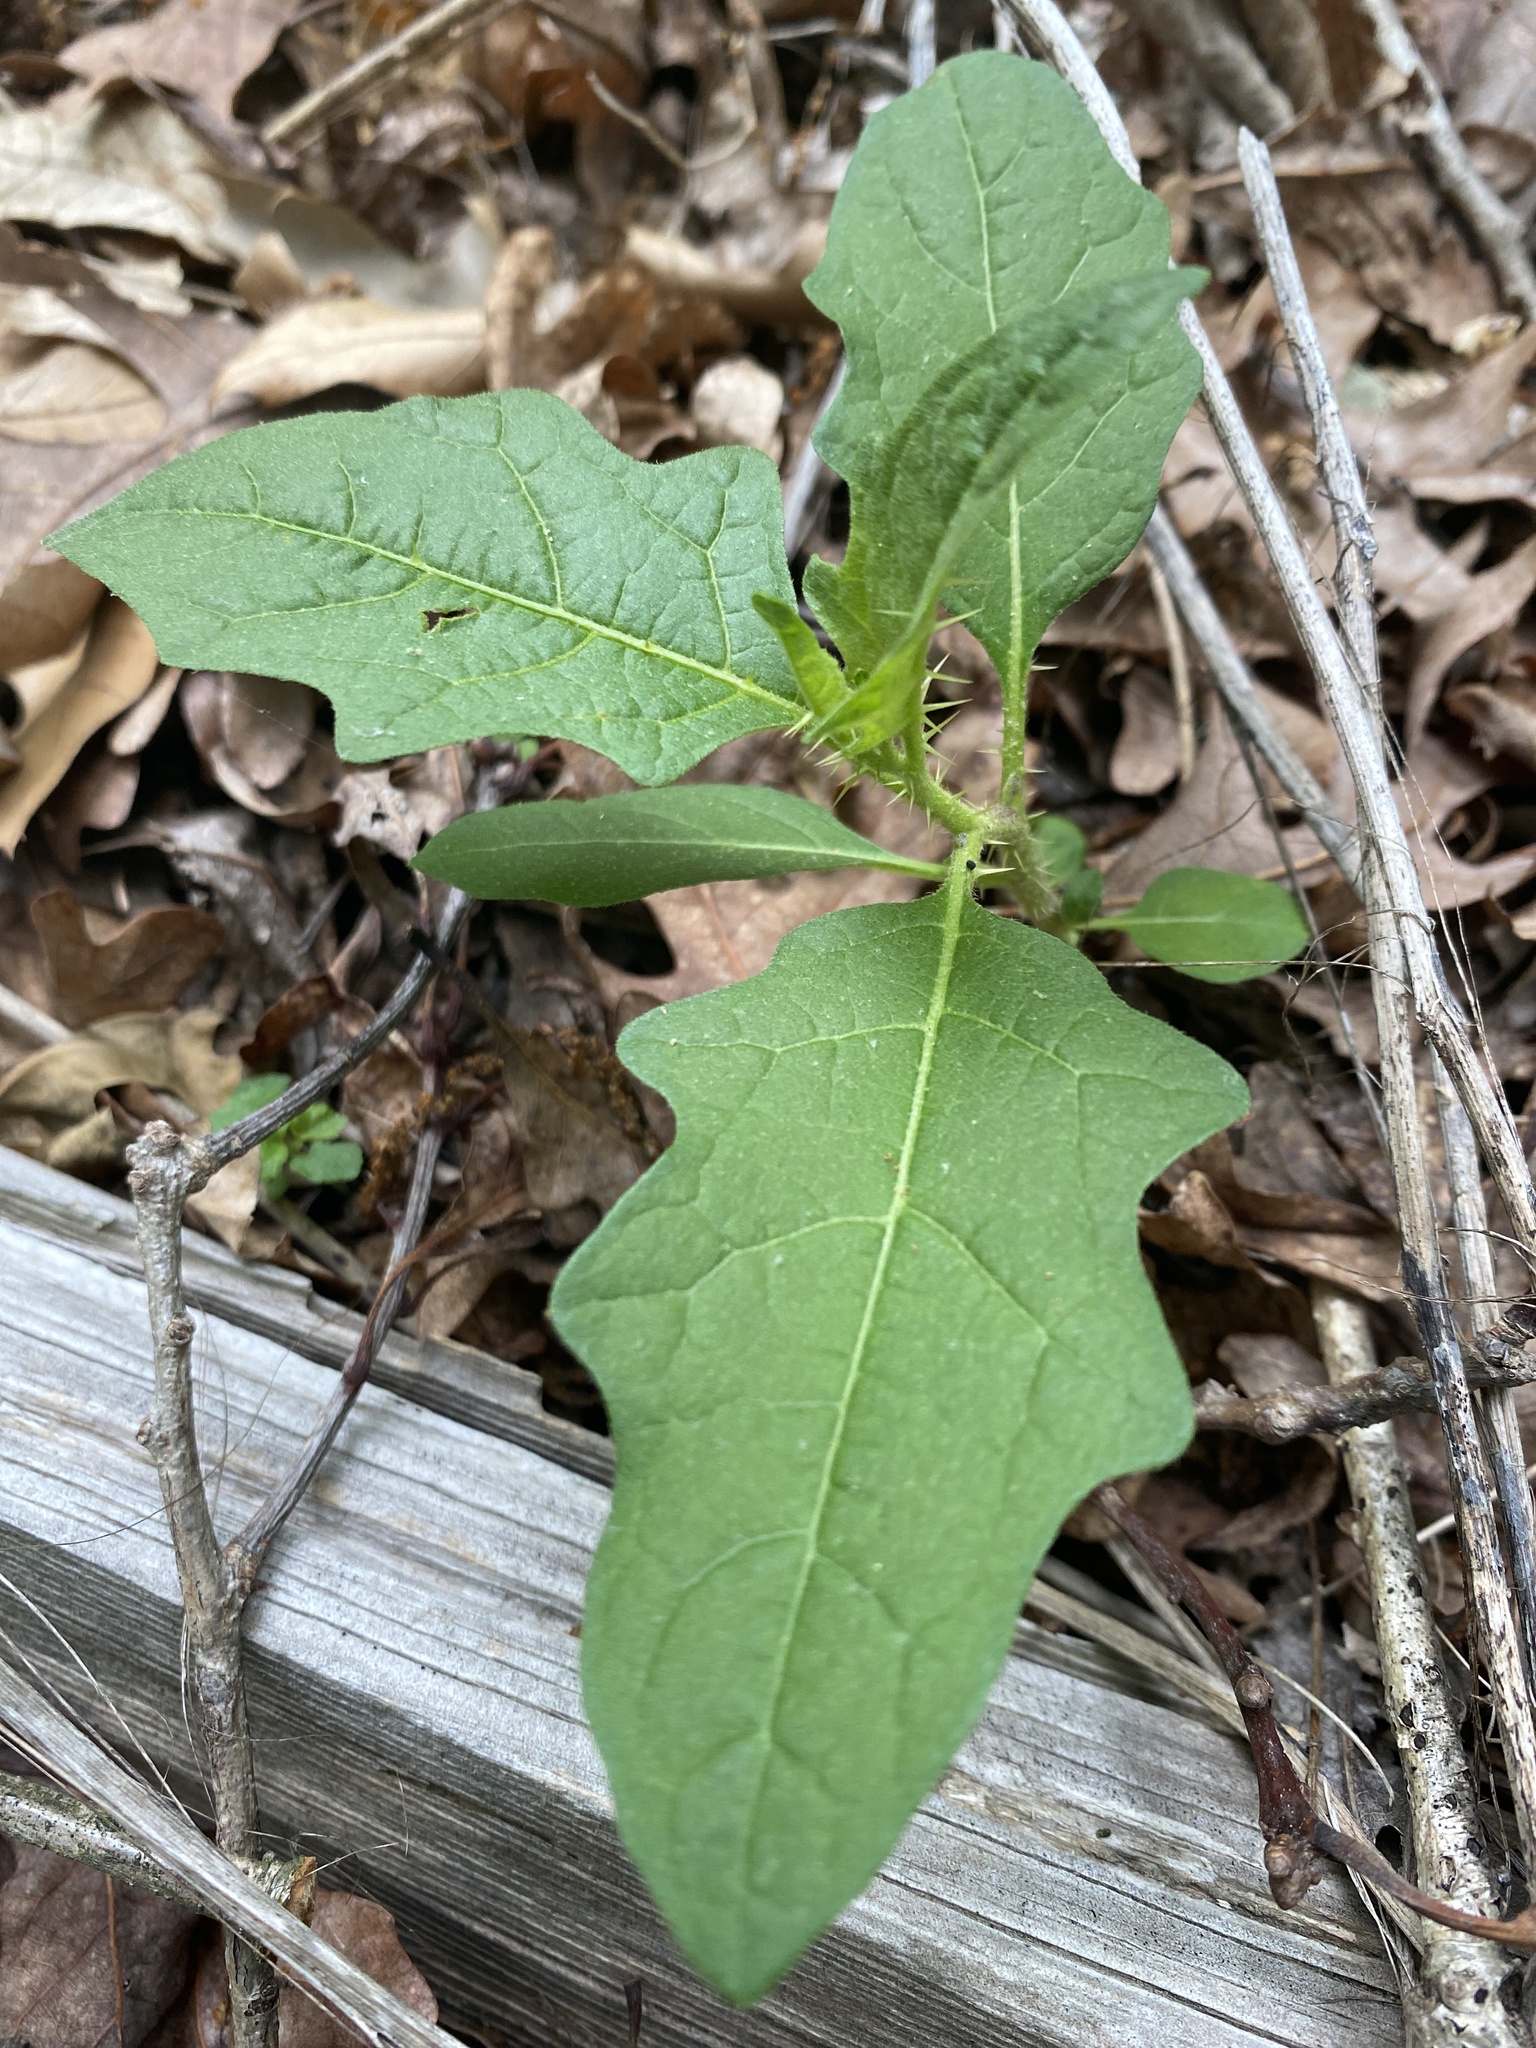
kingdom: Plantae
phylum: Tracheophyta
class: Magnoliopsida
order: Solanales
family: Solanaceae
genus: Solanum
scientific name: Solanum carolinense
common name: Horse-nettle
